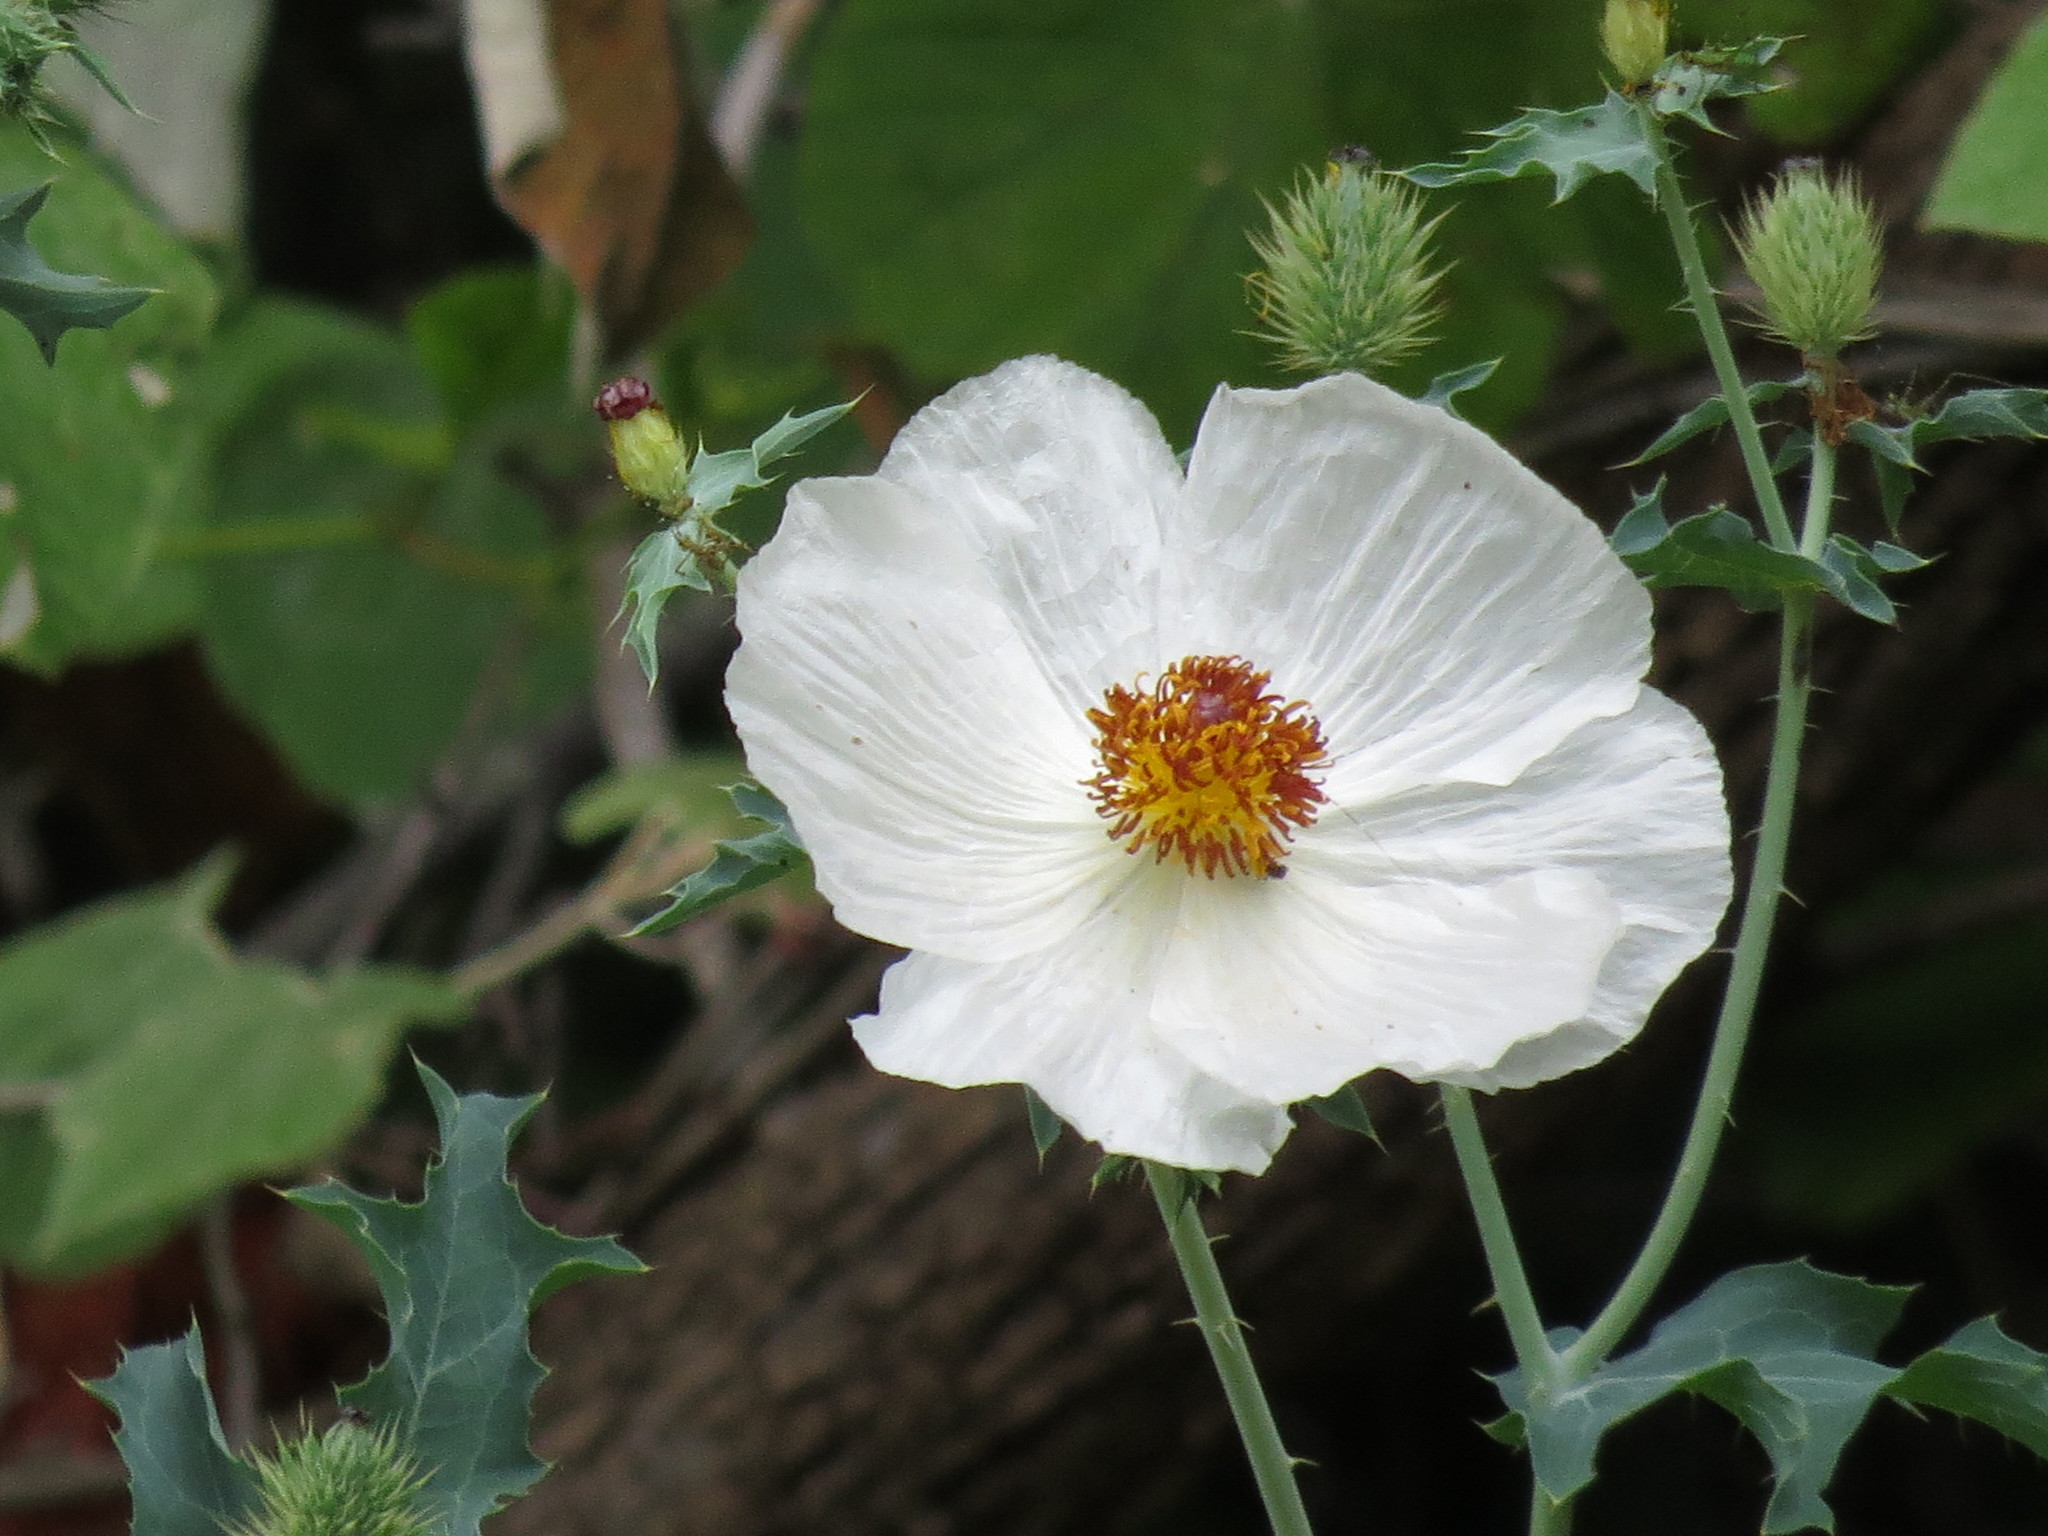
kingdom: Plantae
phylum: Tracheophyta
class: Magnoliopsida
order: Ranunculales
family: Papaveraceae
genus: Argemone
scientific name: Argemone albiflora
